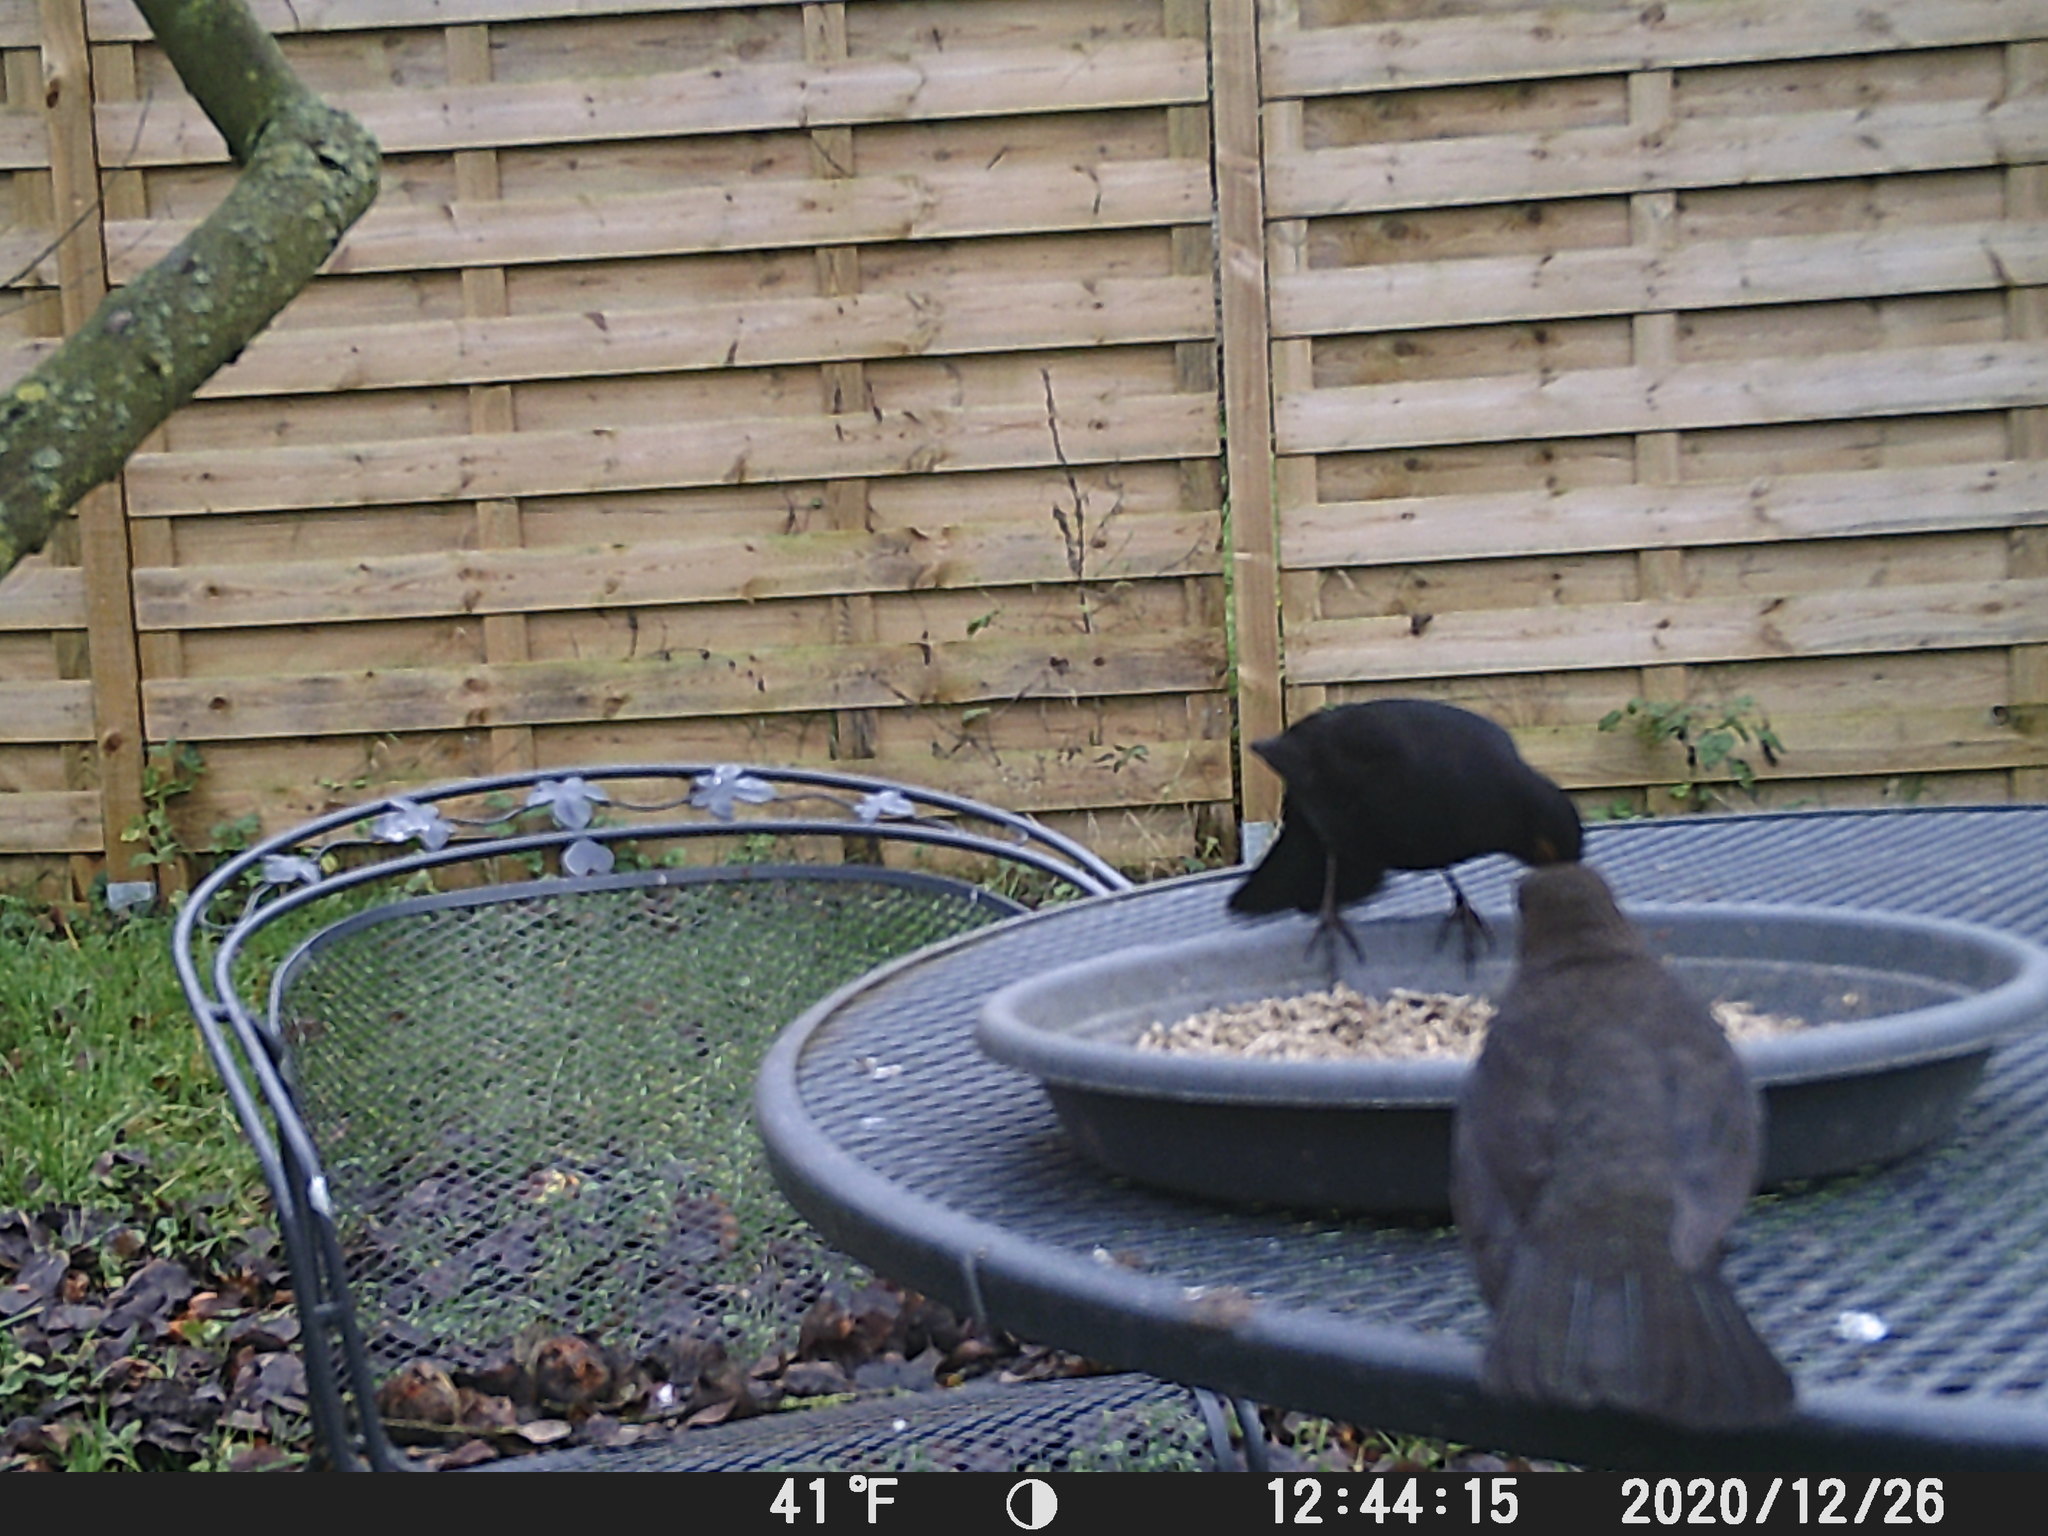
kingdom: Animalia
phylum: Chordata
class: Aves
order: Passeriformes
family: Turdidae
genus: Turdus
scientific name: Turdus merula
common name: Common blackbird
